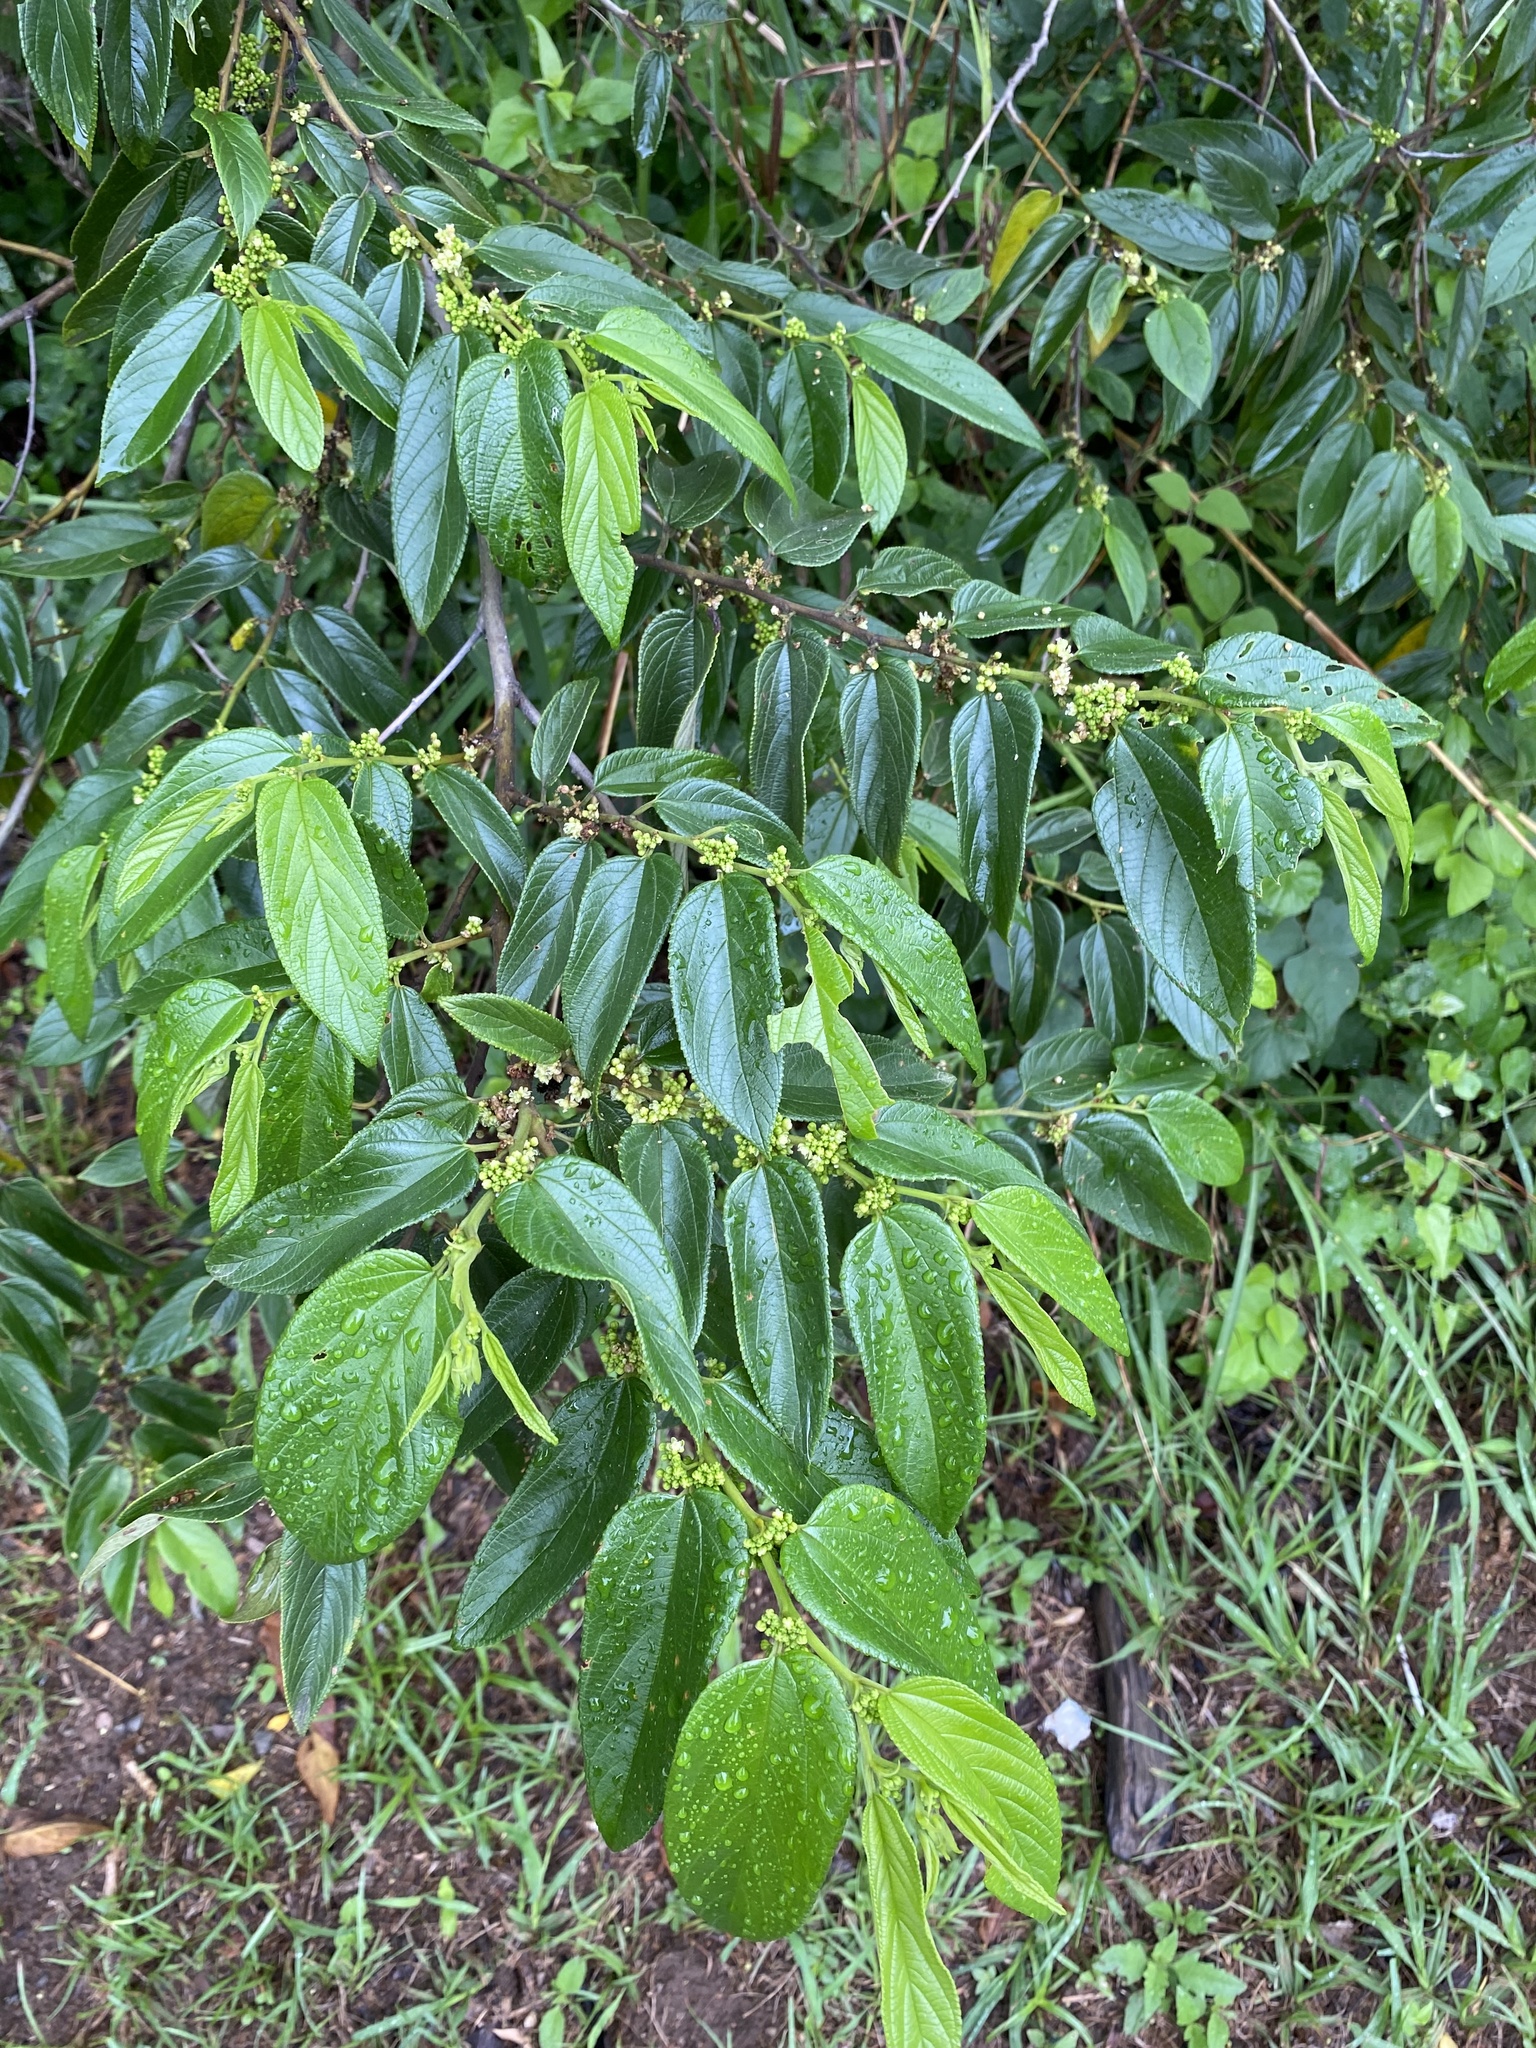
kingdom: Plantae
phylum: Tracheophyta
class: Magnoliopsida
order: Rosales
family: Cannabaceae
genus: Trema
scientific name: Trema orientale
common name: Indian charcoal tree
